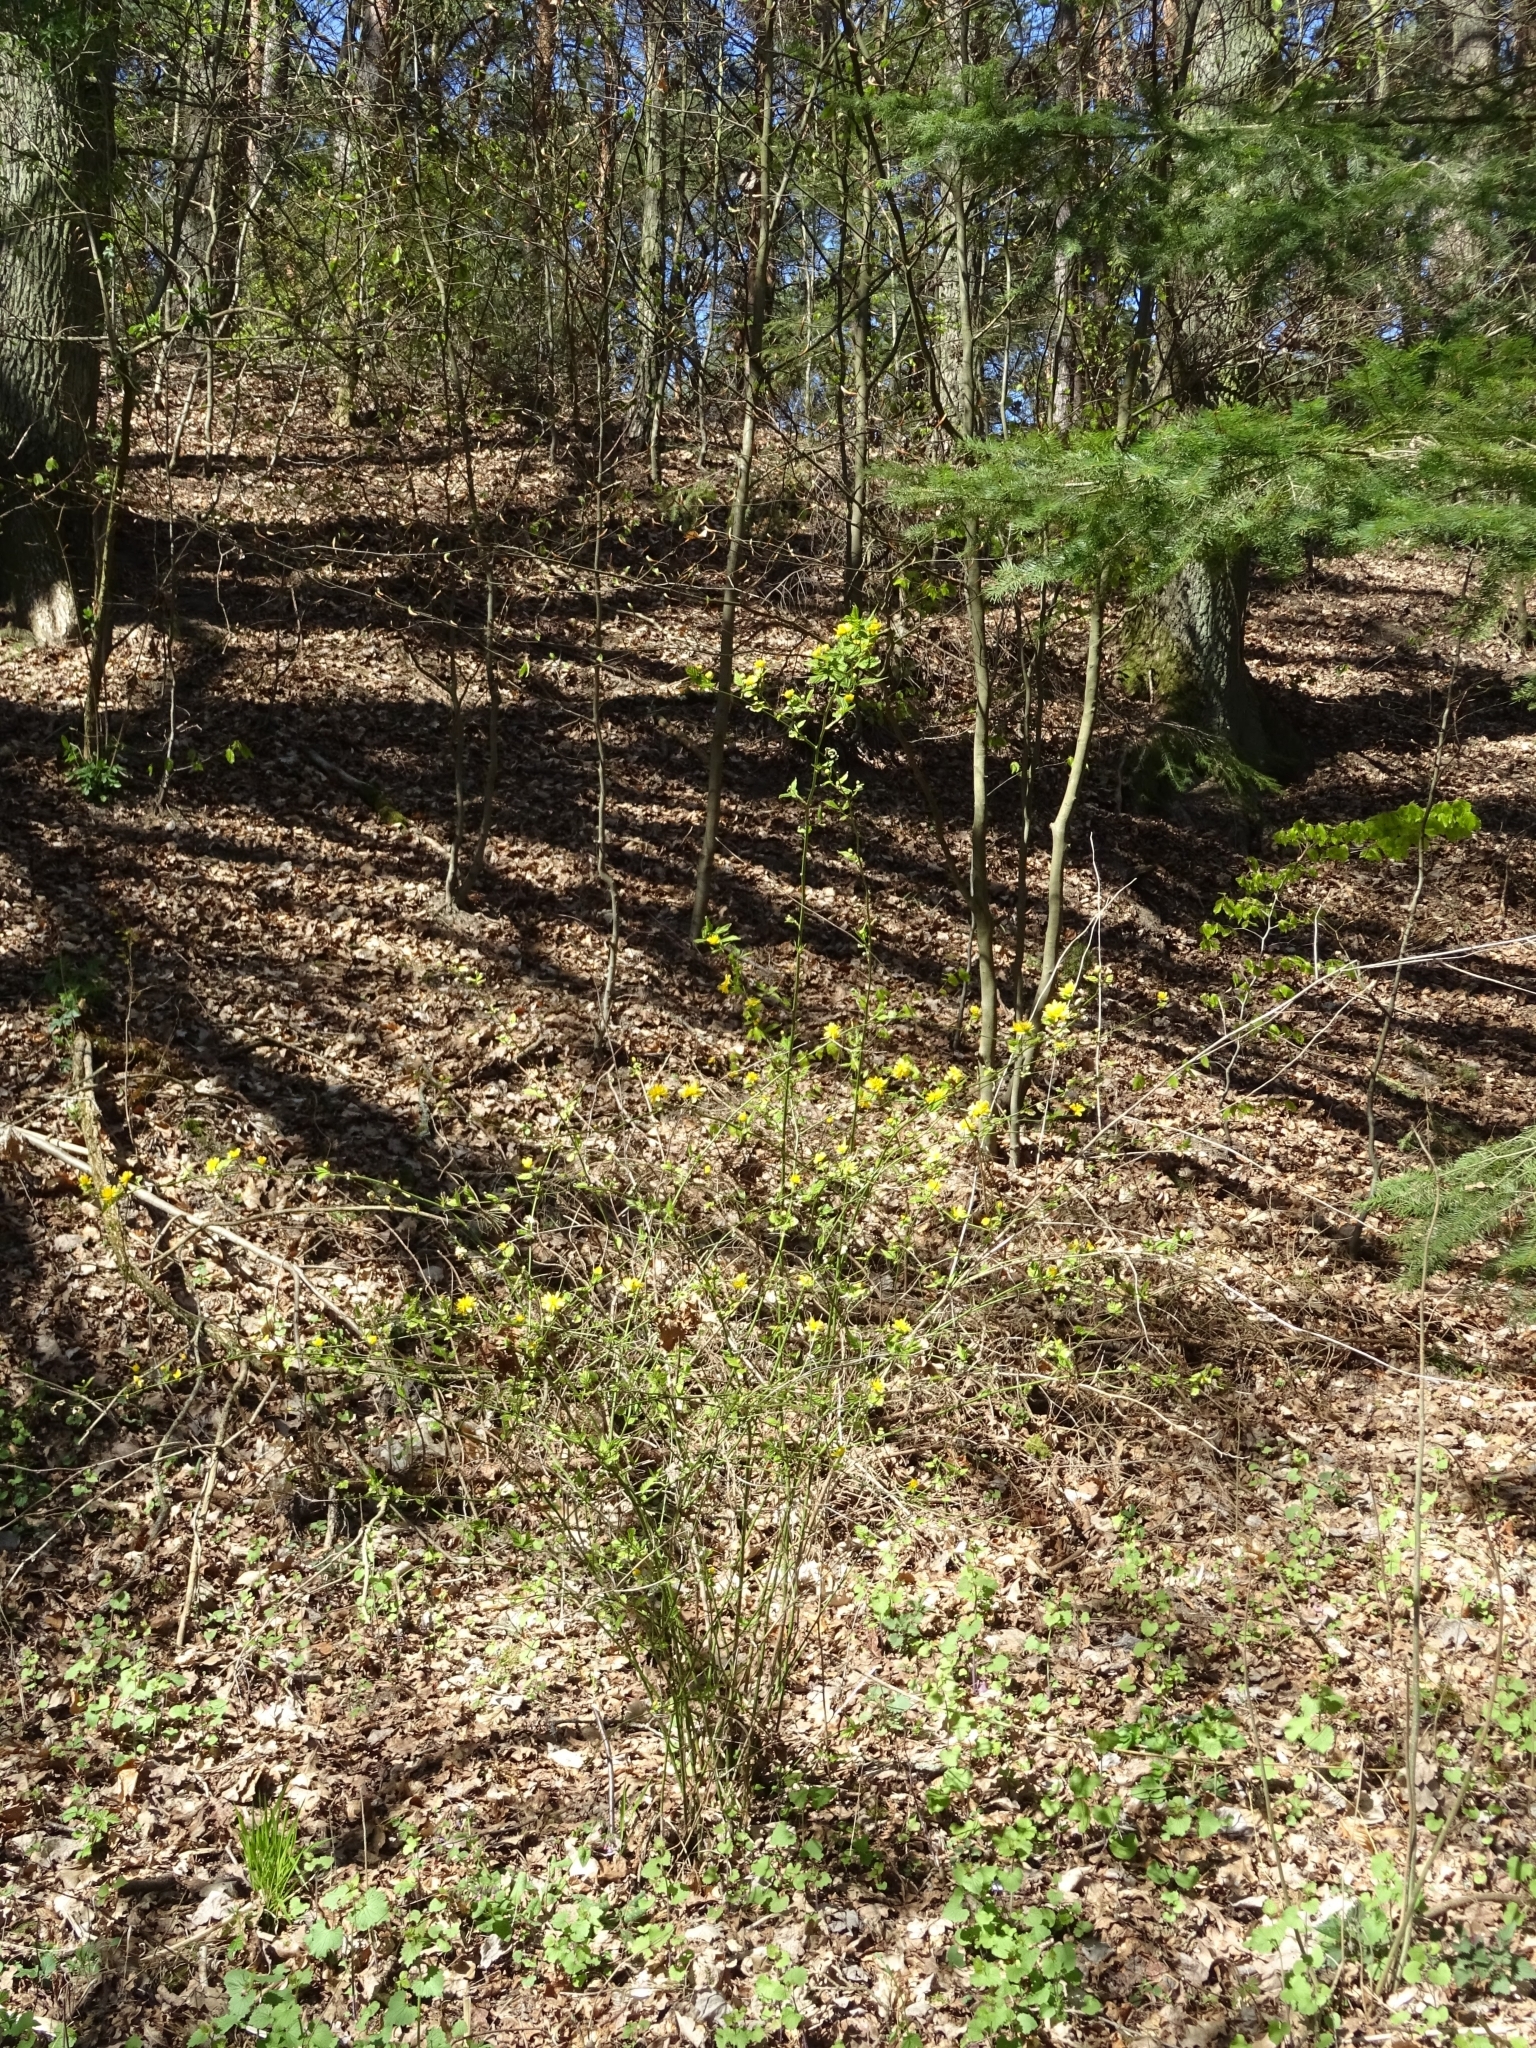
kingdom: Plantae
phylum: Tracheophyta
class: Magnoliopsida
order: Rosales
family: Rosaceae
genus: Kerria
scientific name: Kerria japonica
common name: Japanese kerria
